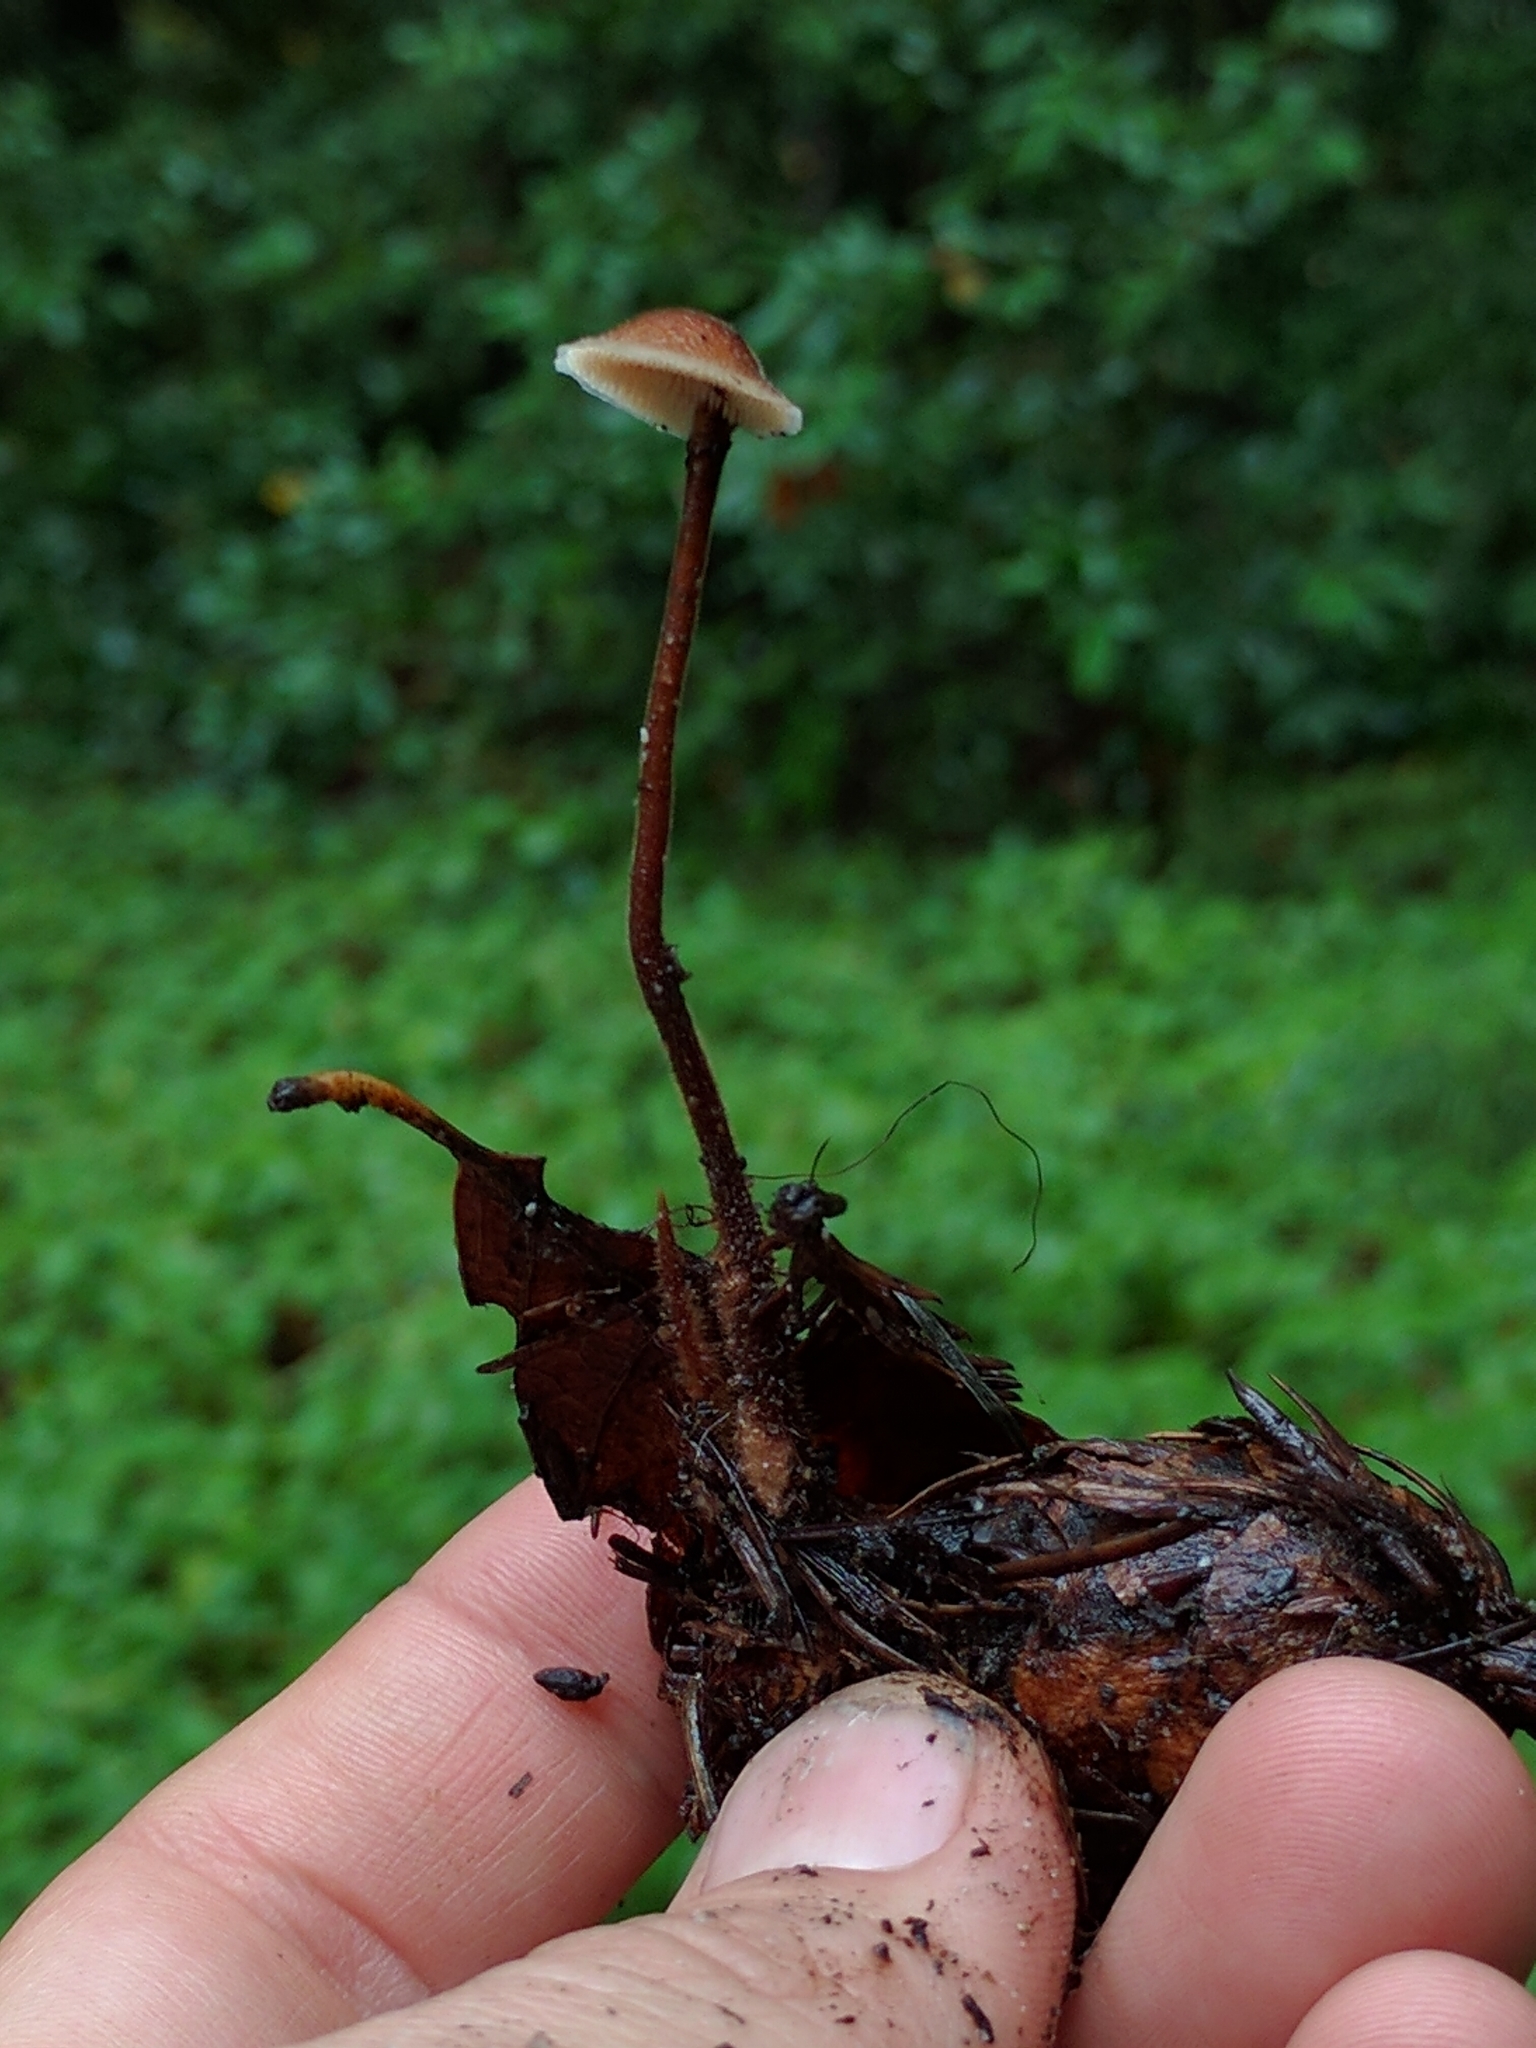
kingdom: Fungi
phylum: Basidiomycota
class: Agaricomycetes
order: Russulales
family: Auriscalpiaceae
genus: Auriscalpium
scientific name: Auriscalpium vulgare
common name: Earpick fungus
